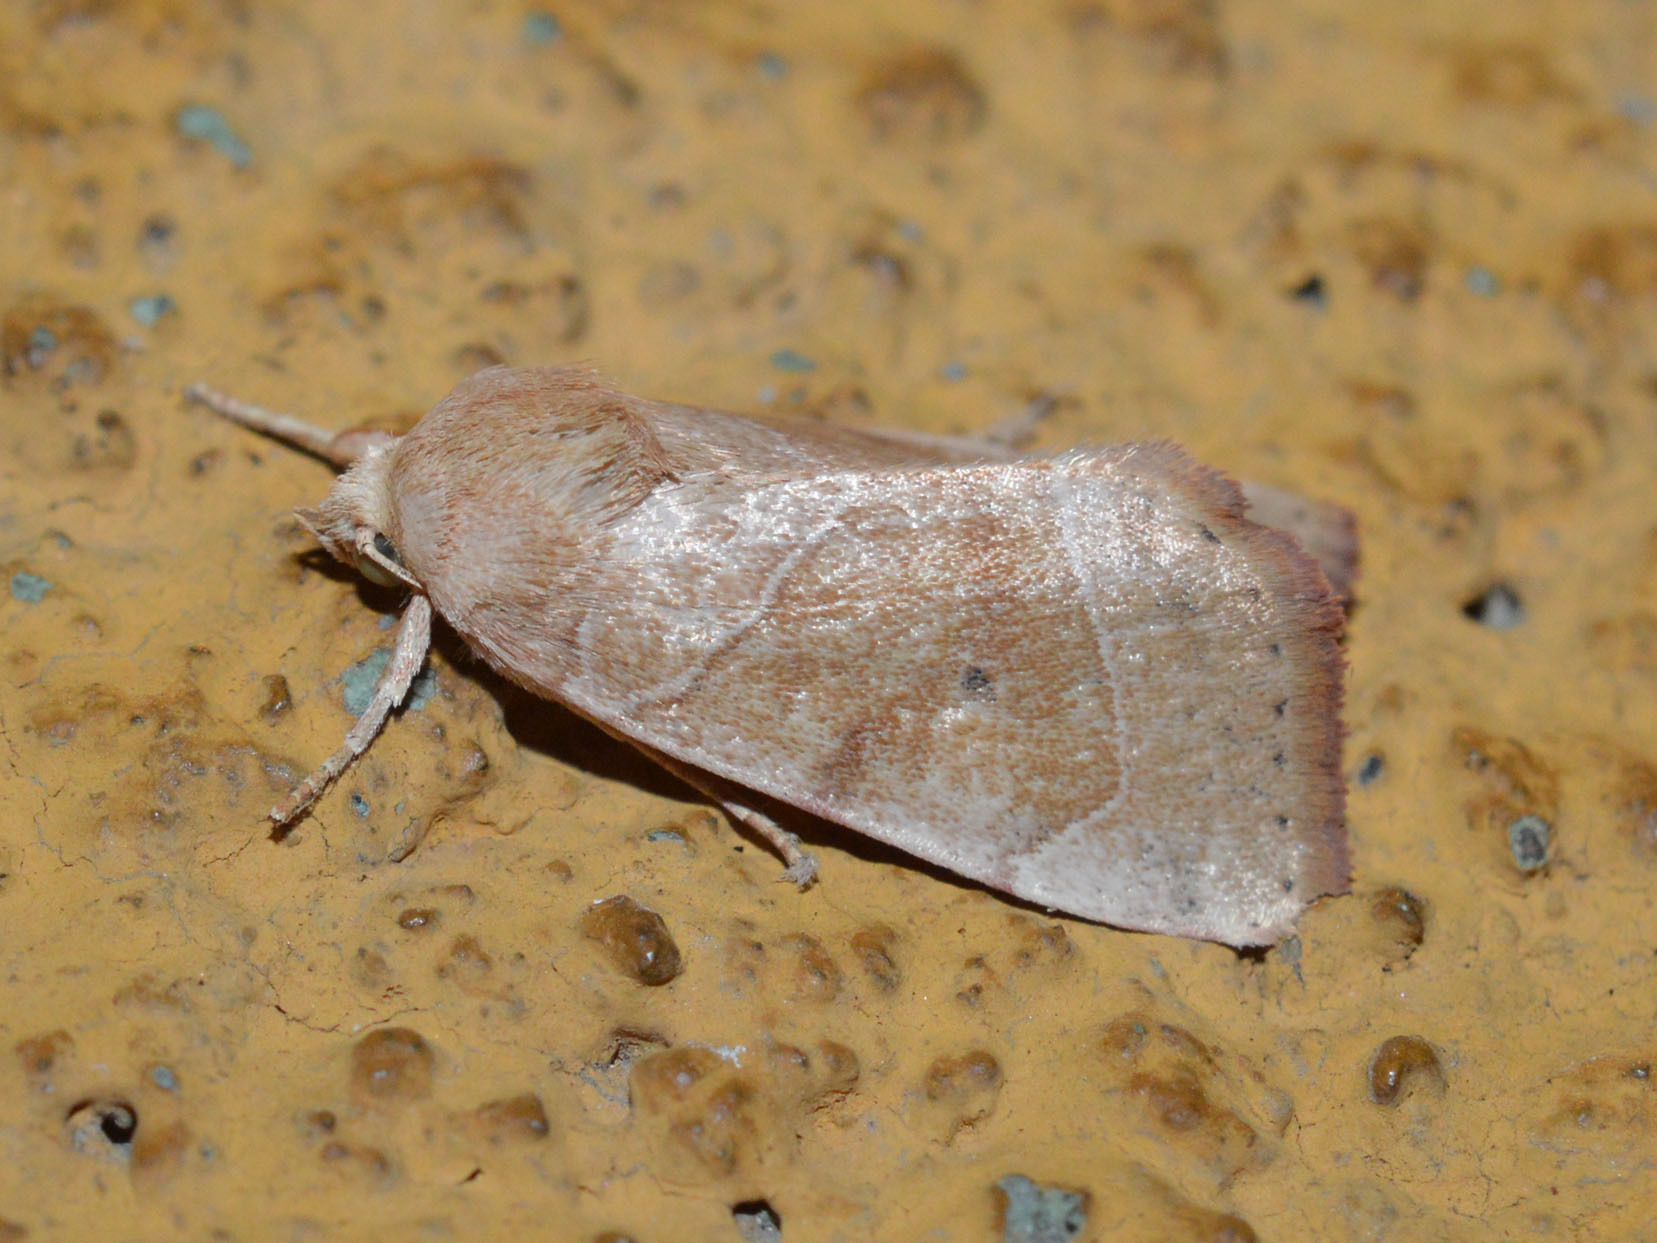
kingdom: Animalia
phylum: Arthropoda
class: Insecta
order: Lepidoptera
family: Noctuidae
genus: Cosmia
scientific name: Cosmia trapezina
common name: Dun-bar
